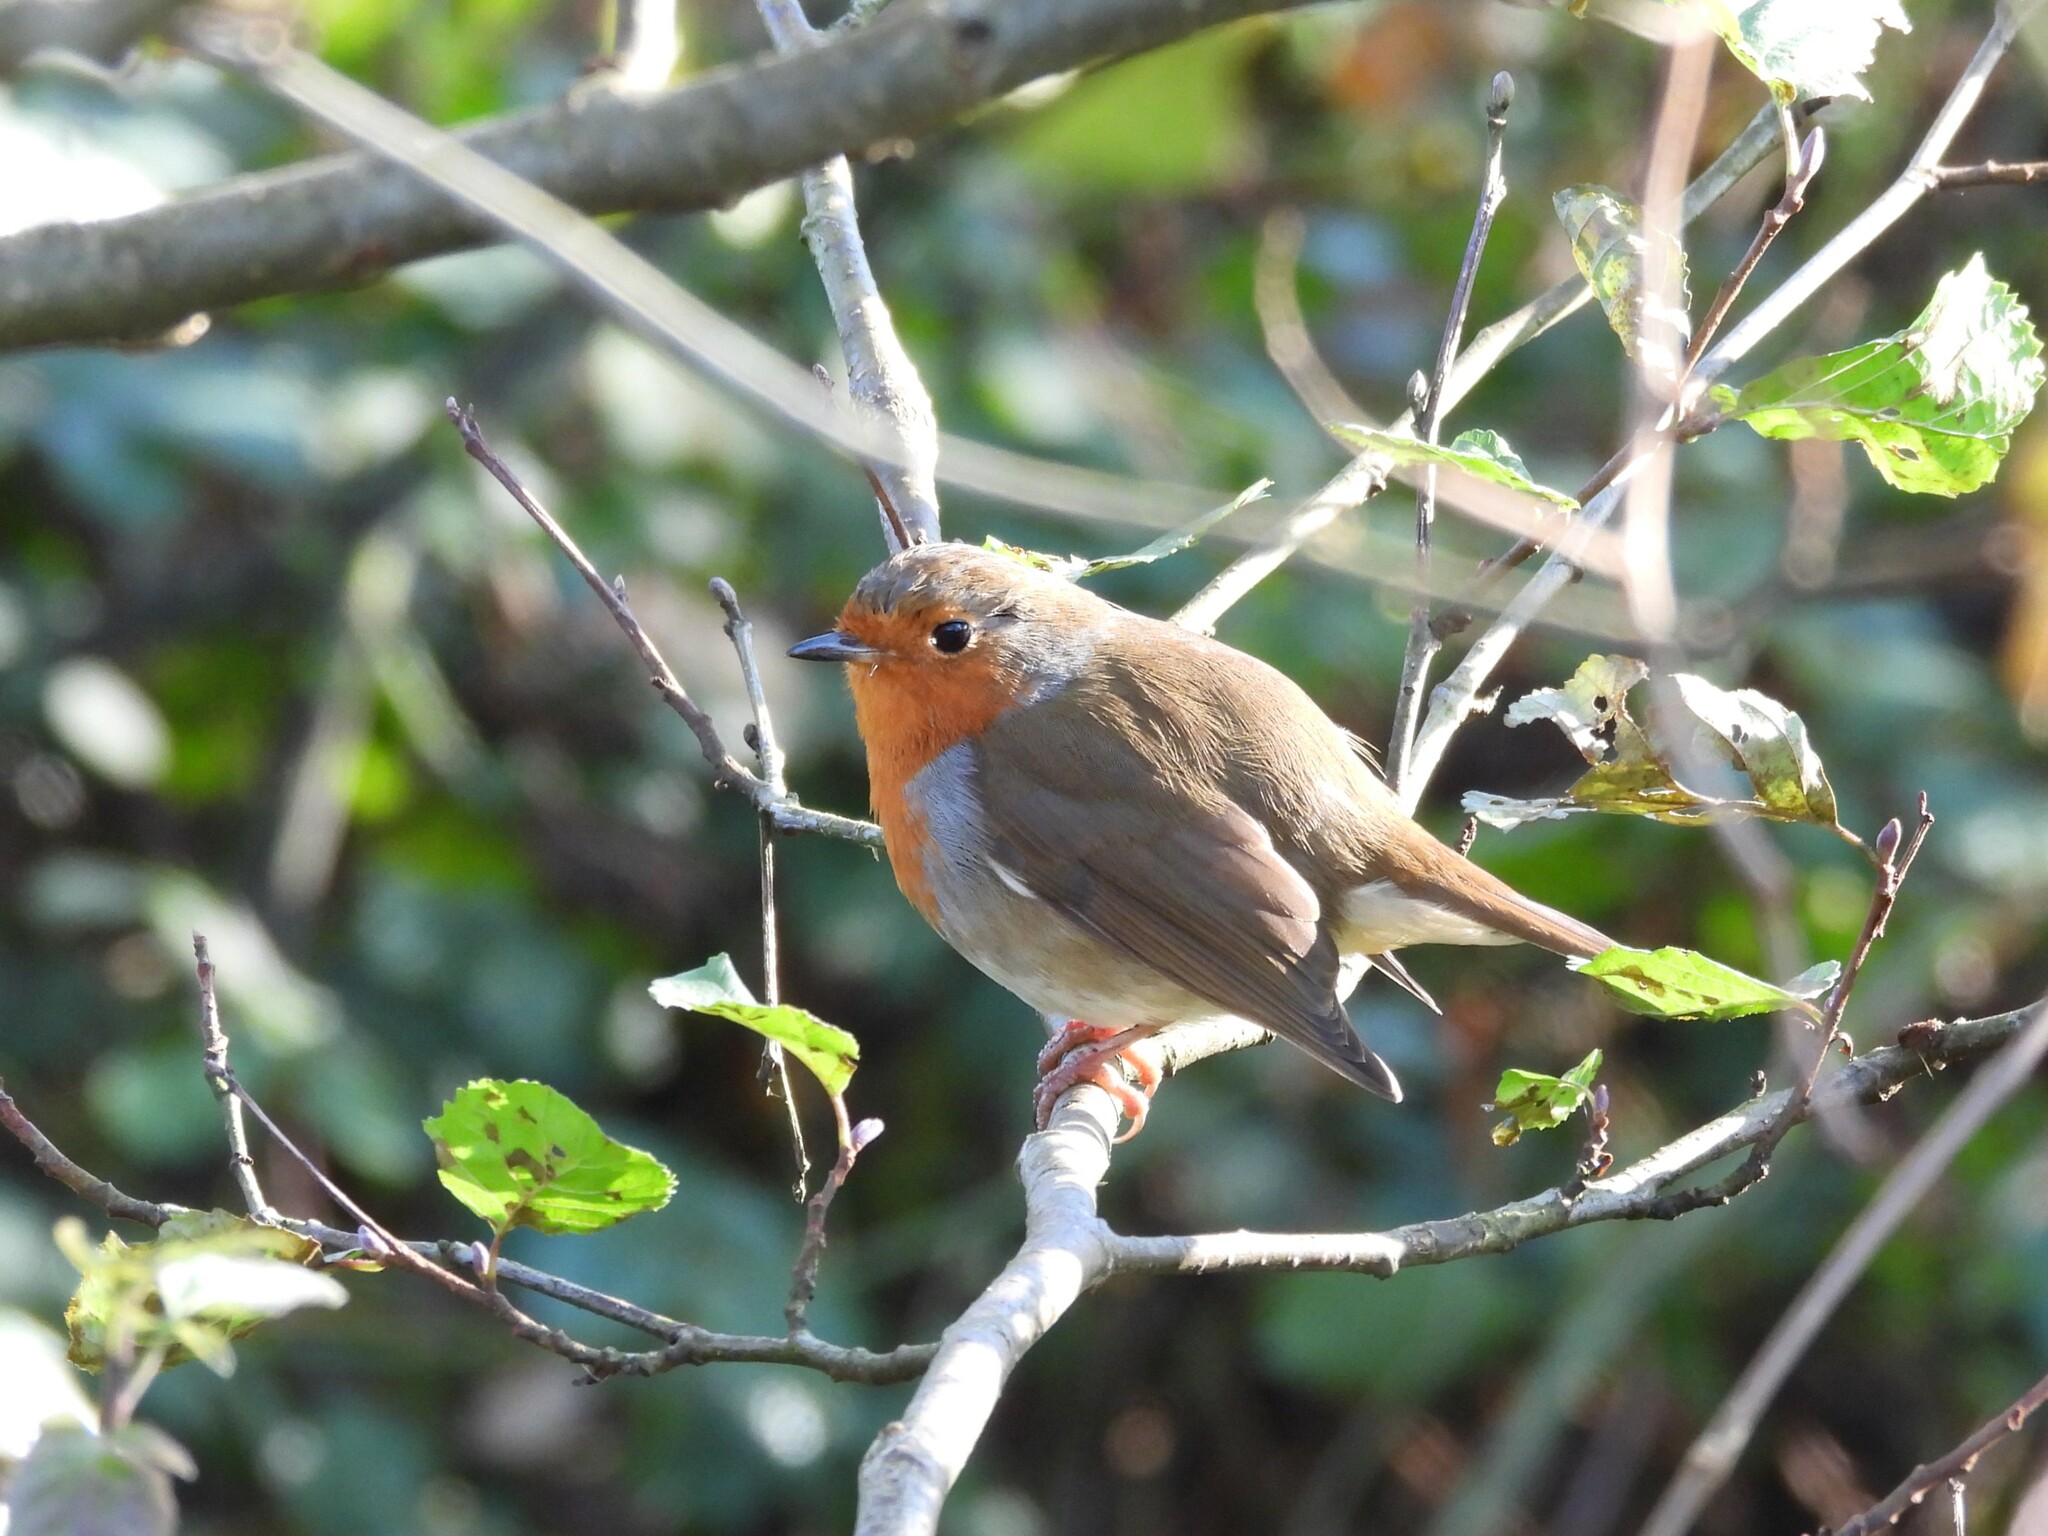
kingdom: Animalia
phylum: Chordata
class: Aves
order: Passeriformes
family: Muscicapidae
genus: Erithacus
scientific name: Erithacus rubecula
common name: European robin
